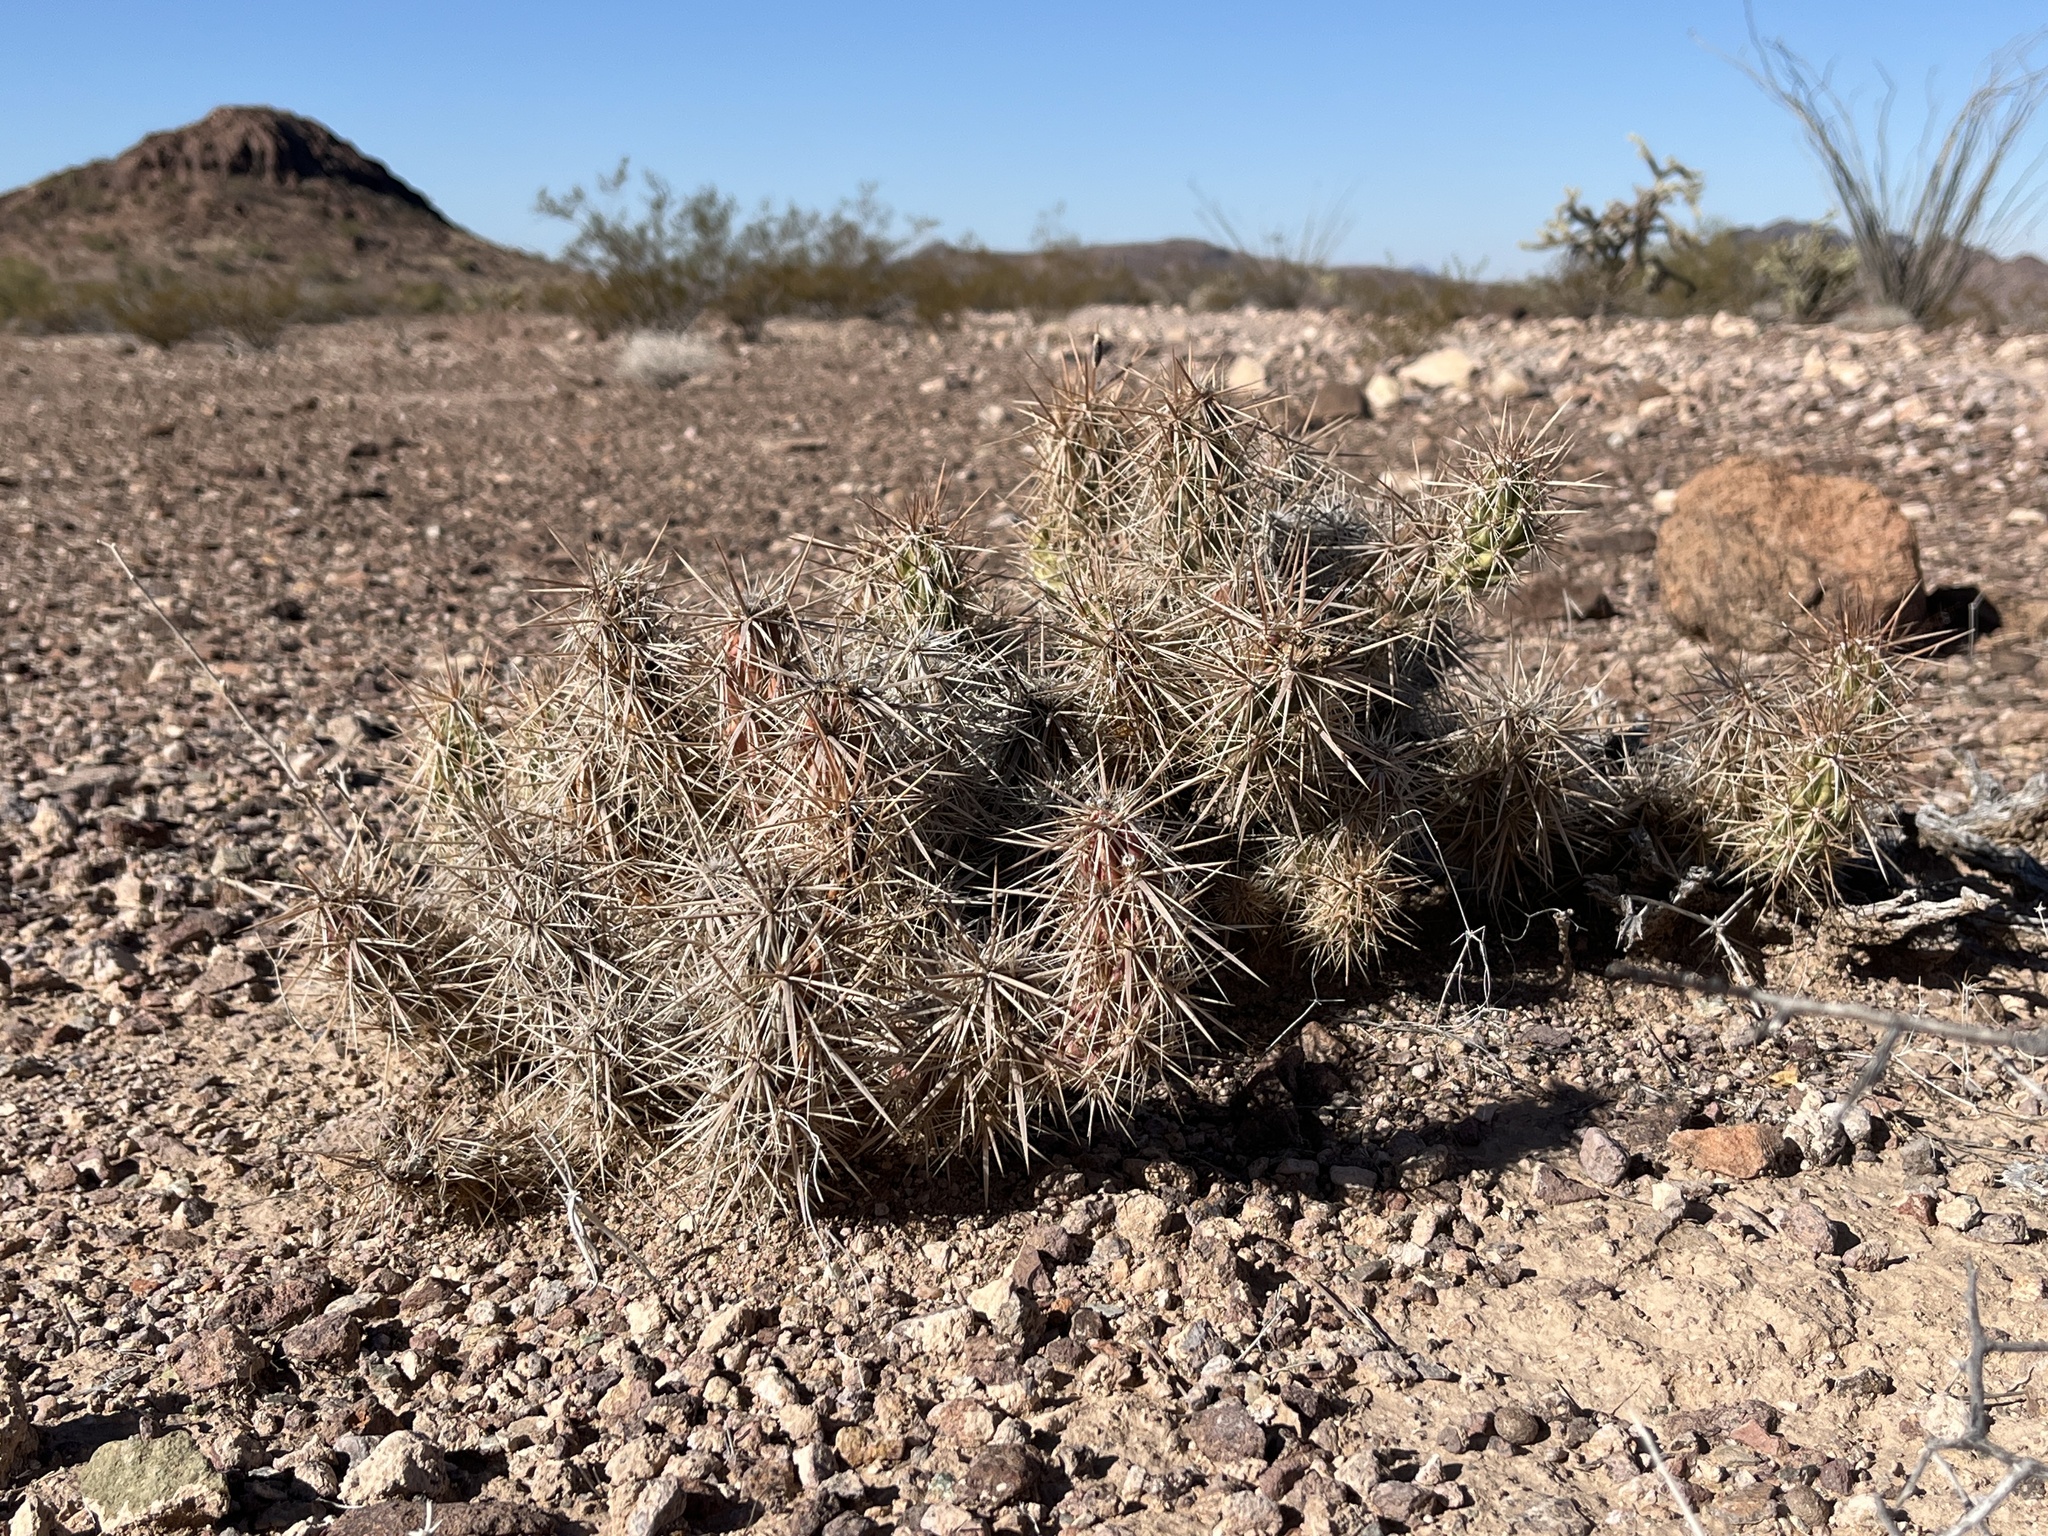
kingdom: Plantae
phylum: Tracheophyta
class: Magnoliopsida
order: Caryophyllales
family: Cactaceae
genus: Grusonia
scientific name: Grusonia kunzei
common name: Wright's club cholla
